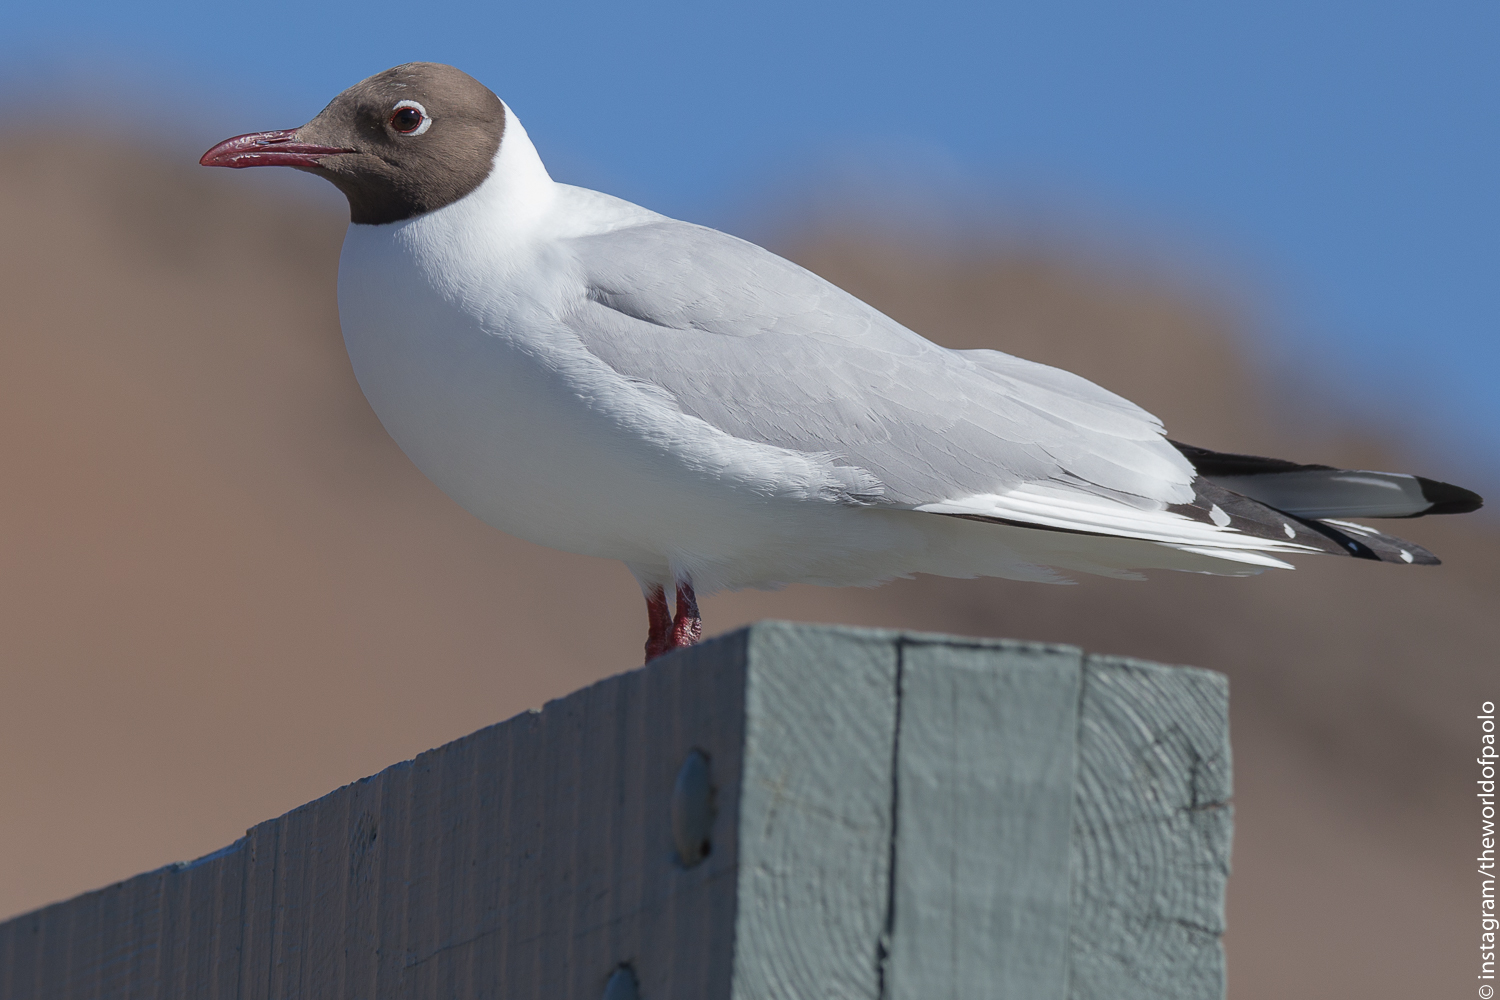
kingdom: Animalia
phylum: Chordata
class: Aves
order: Charadriiformes
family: Laridae
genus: Chroicocephalus
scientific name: Chroicocephalus ridibundus
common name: Black-headed gull
